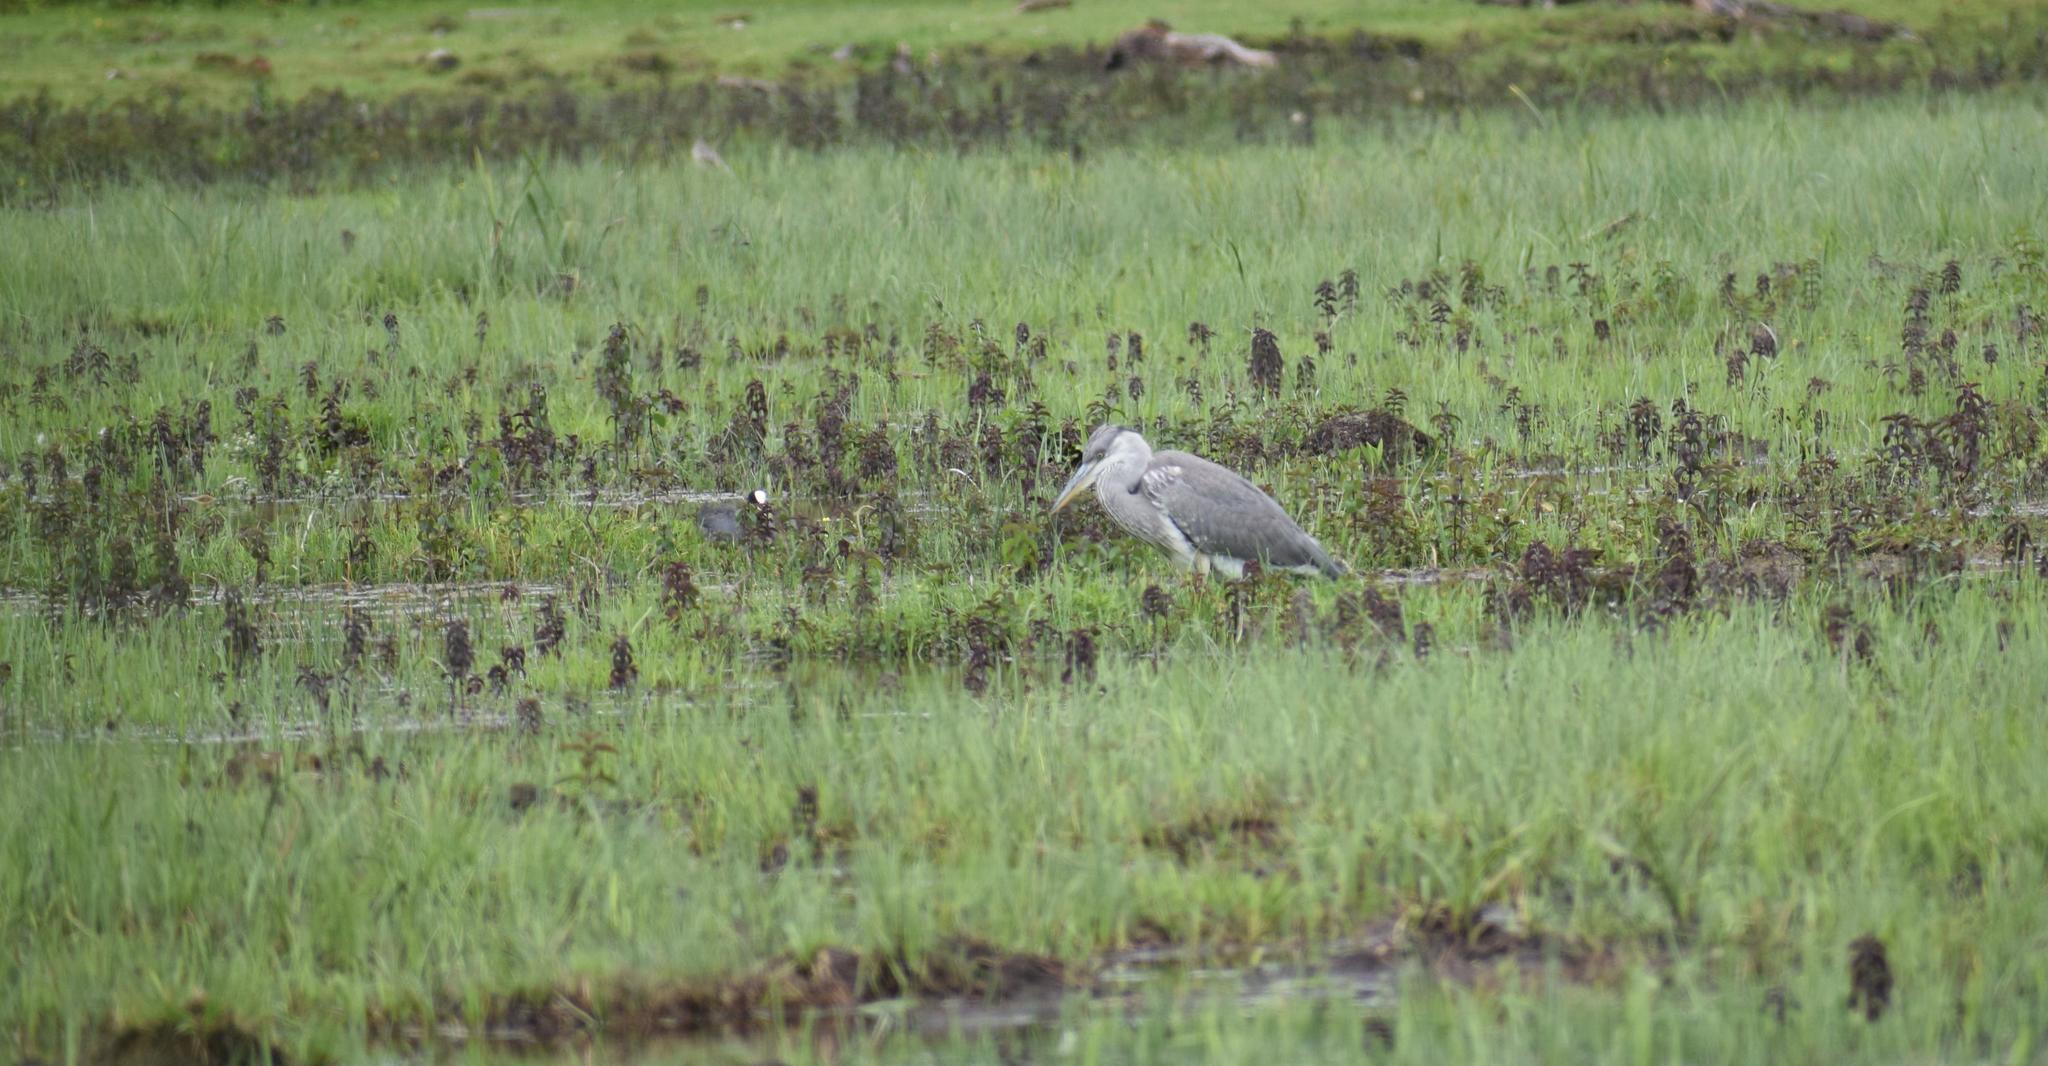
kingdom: Animalia
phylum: Chordata
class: Aves
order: Pelecaniformes
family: Ardeidae
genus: Ardea
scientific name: Ardea cinerea
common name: Grey heron
